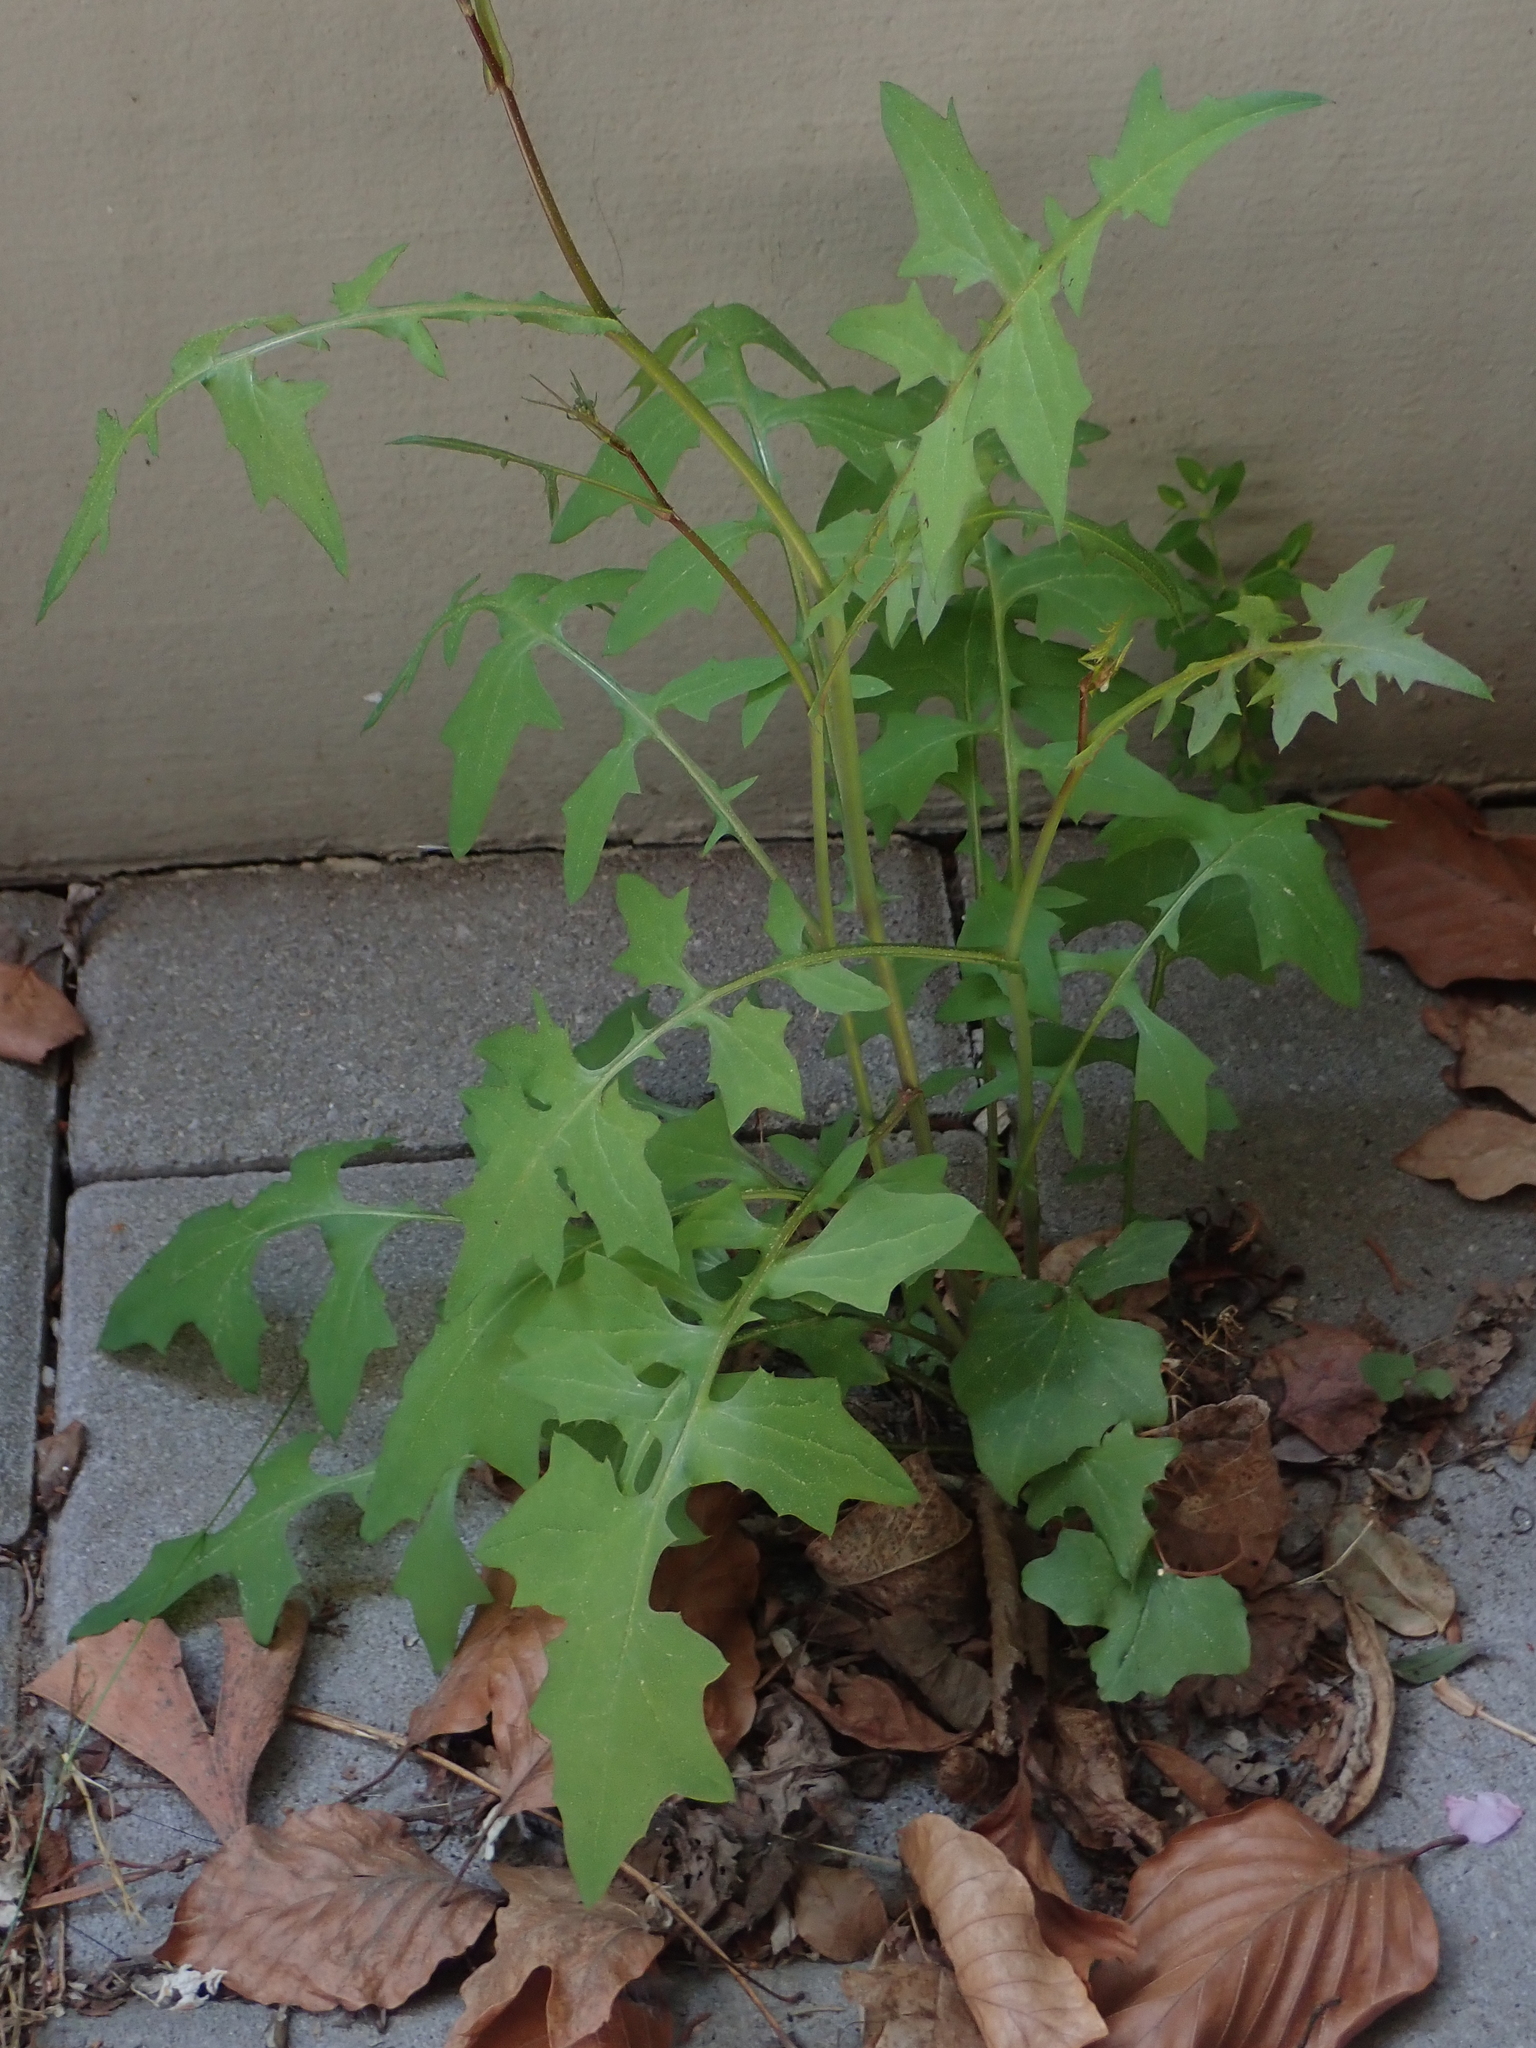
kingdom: Plantae
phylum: Tracheophyta
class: Magnoliopsida
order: Asterales
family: Asteraceae
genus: Mycelis
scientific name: Mycelis muralis
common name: Wall lettuce
